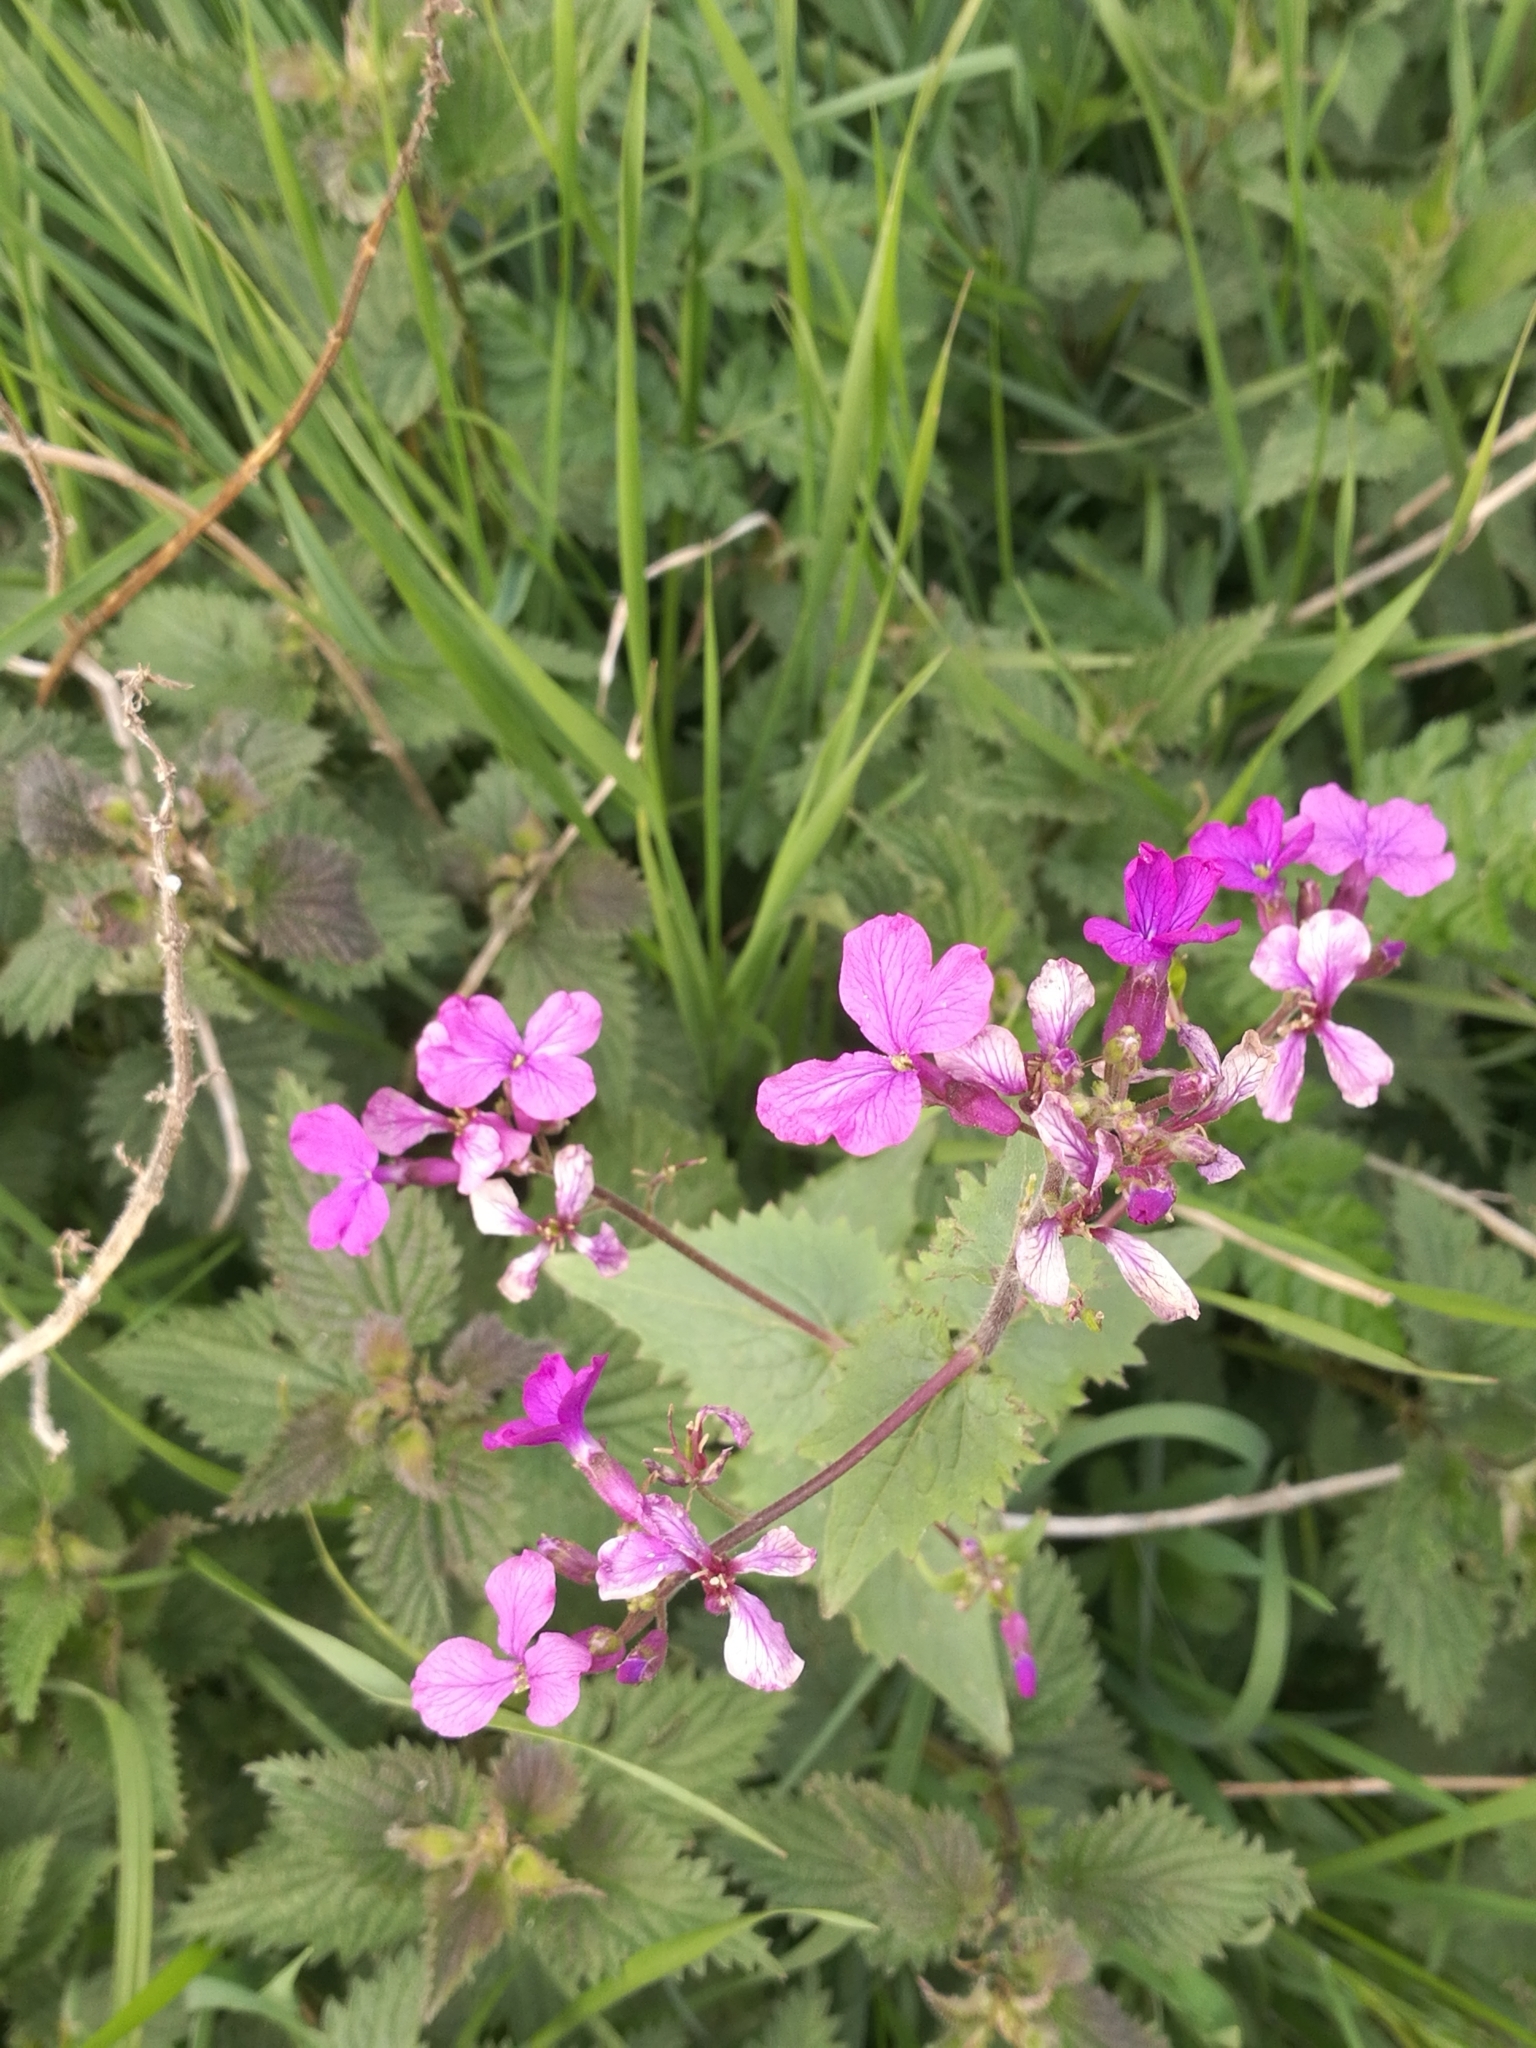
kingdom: Plantae
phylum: Tracheophyta
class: Magnoliopsida
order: Brassicales
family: Brassicaceae
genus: Lunaria
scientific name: Lunaria annua
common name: Honesty
